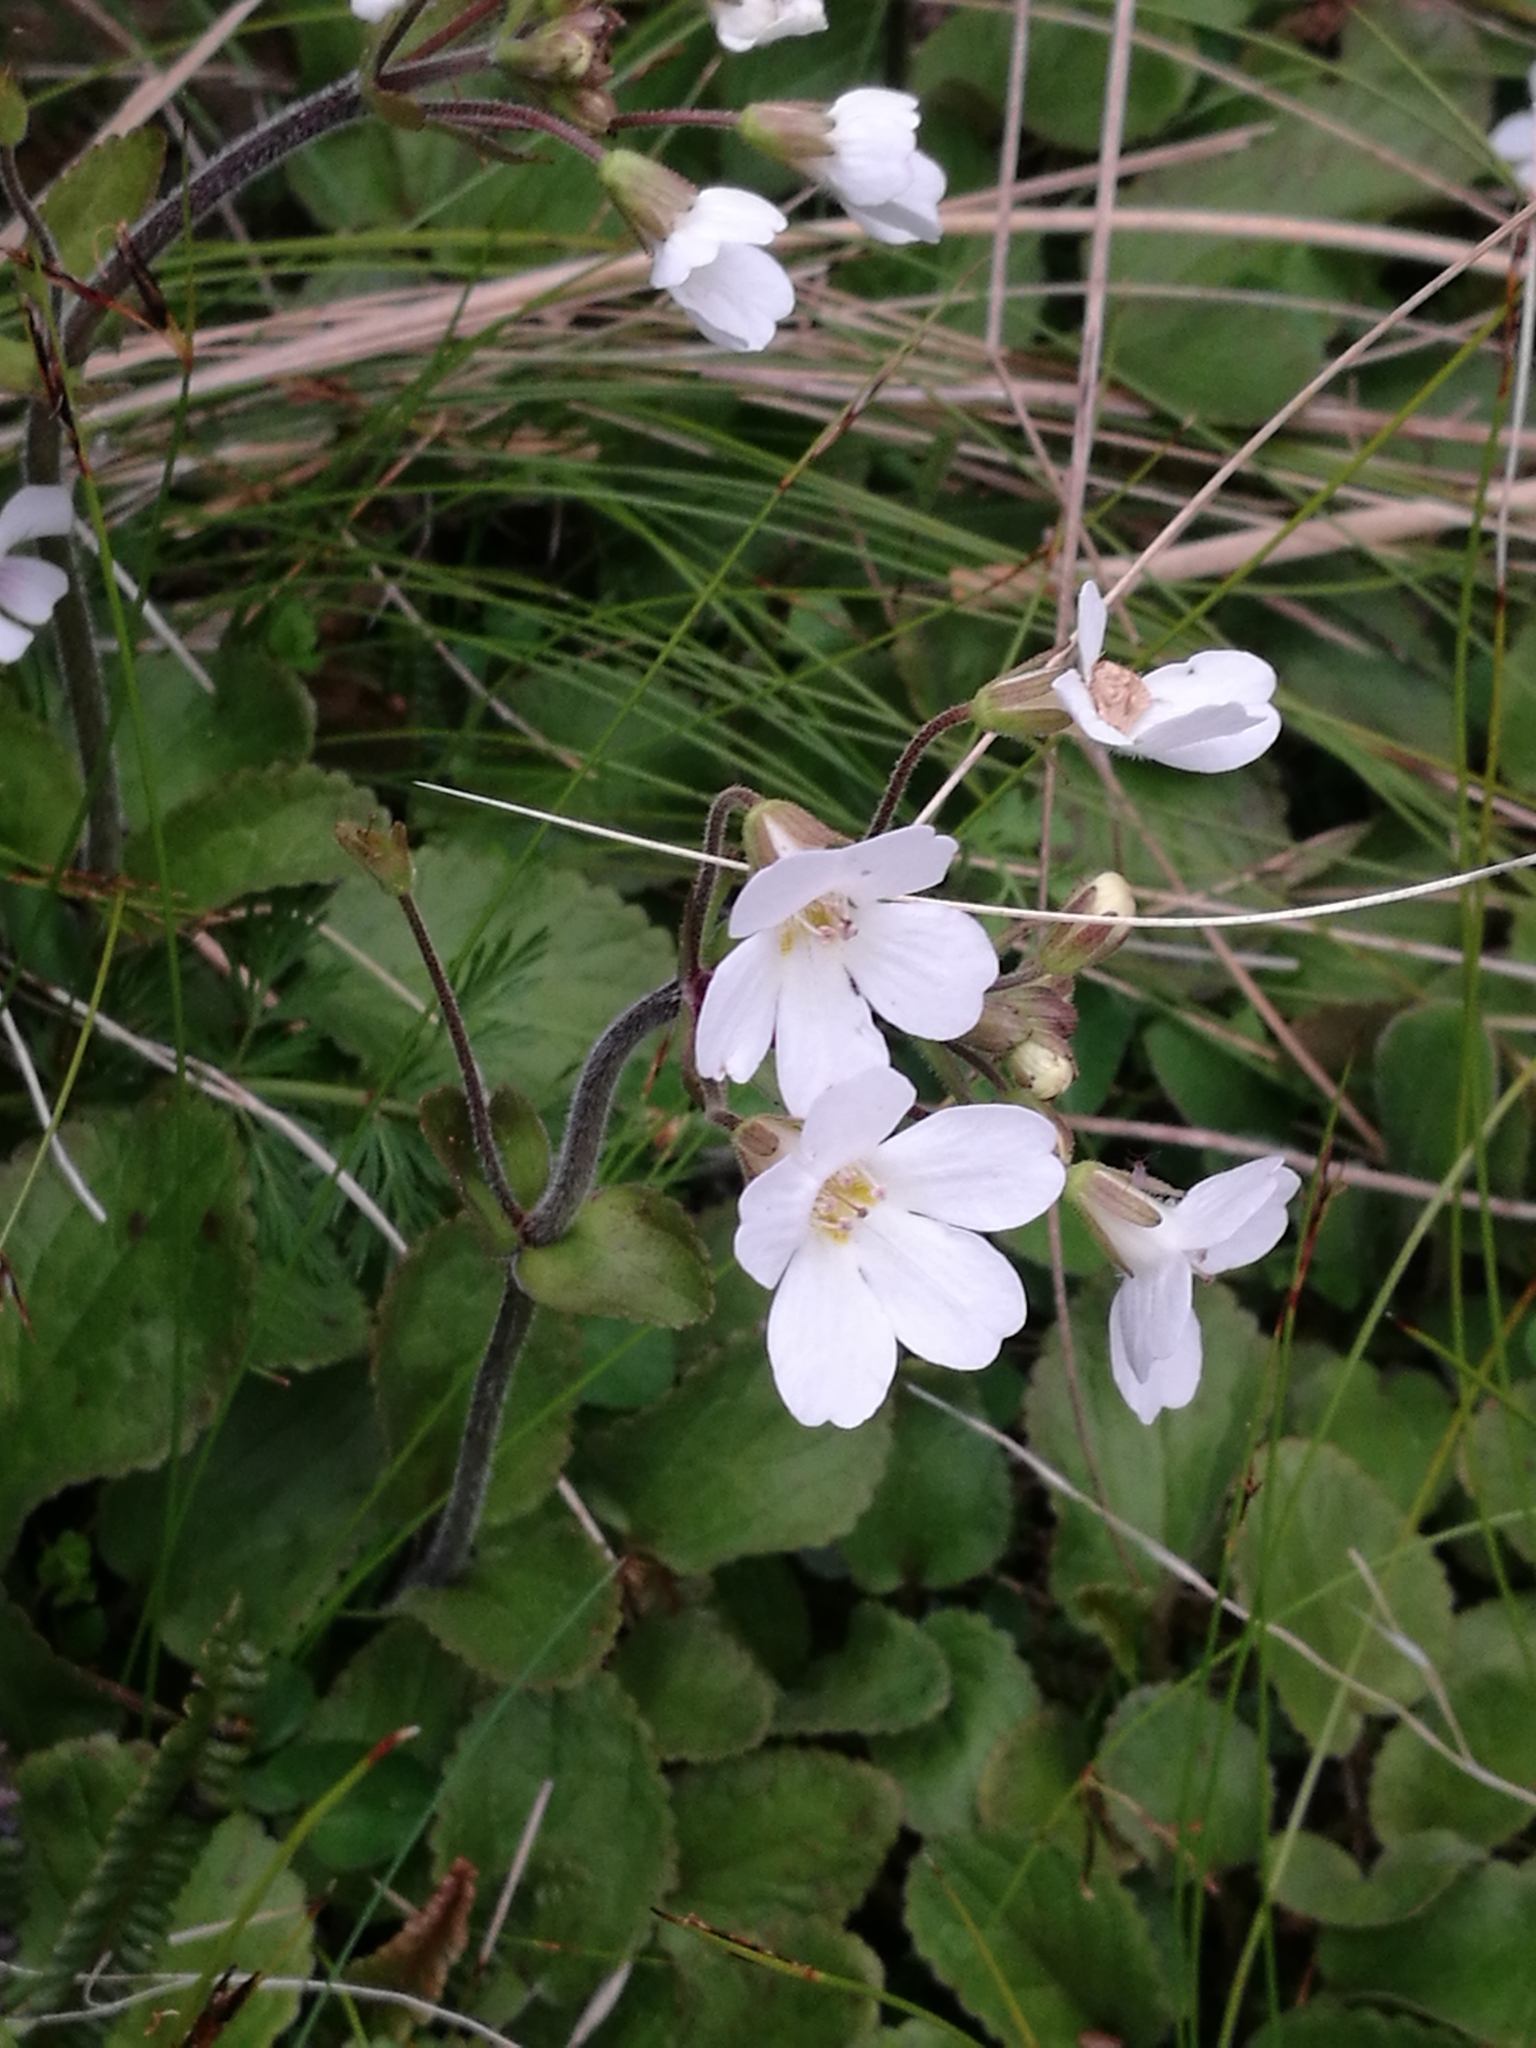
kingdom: Plantae
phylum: Tracheophyta
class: Magnoliopsida
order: Lamiales
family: Plantaginaceae
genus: Ourisia
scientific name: Ourisia macrophylla
